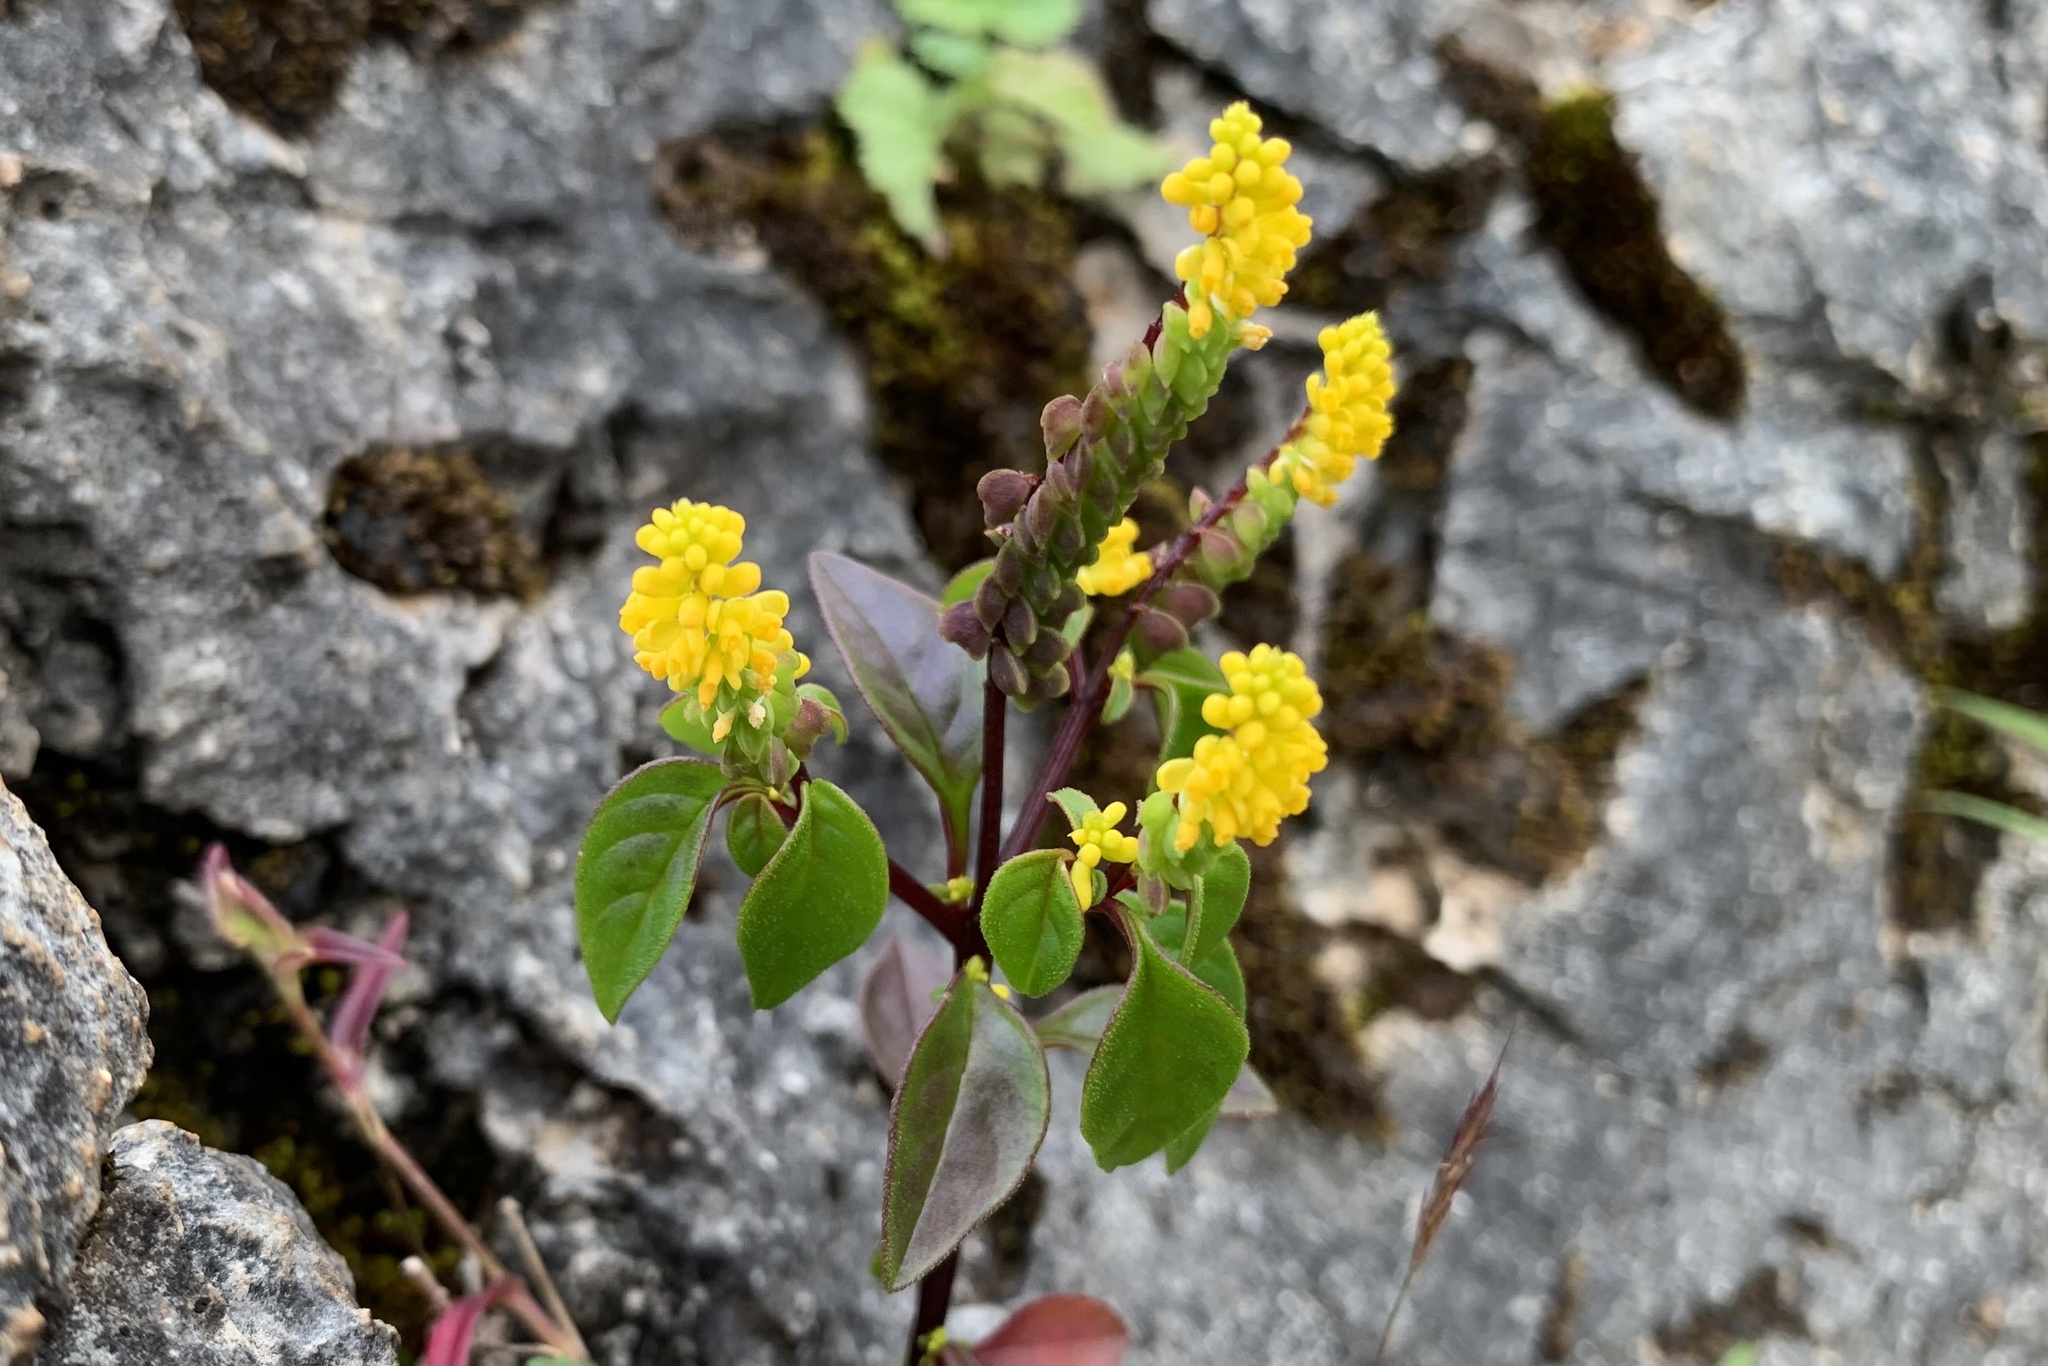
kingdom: Plantae
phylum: Tracheophyta
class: Magnoliopsida
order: Fabales
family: Polygalaceae
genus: Polygala
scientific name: Polygala umbonata
